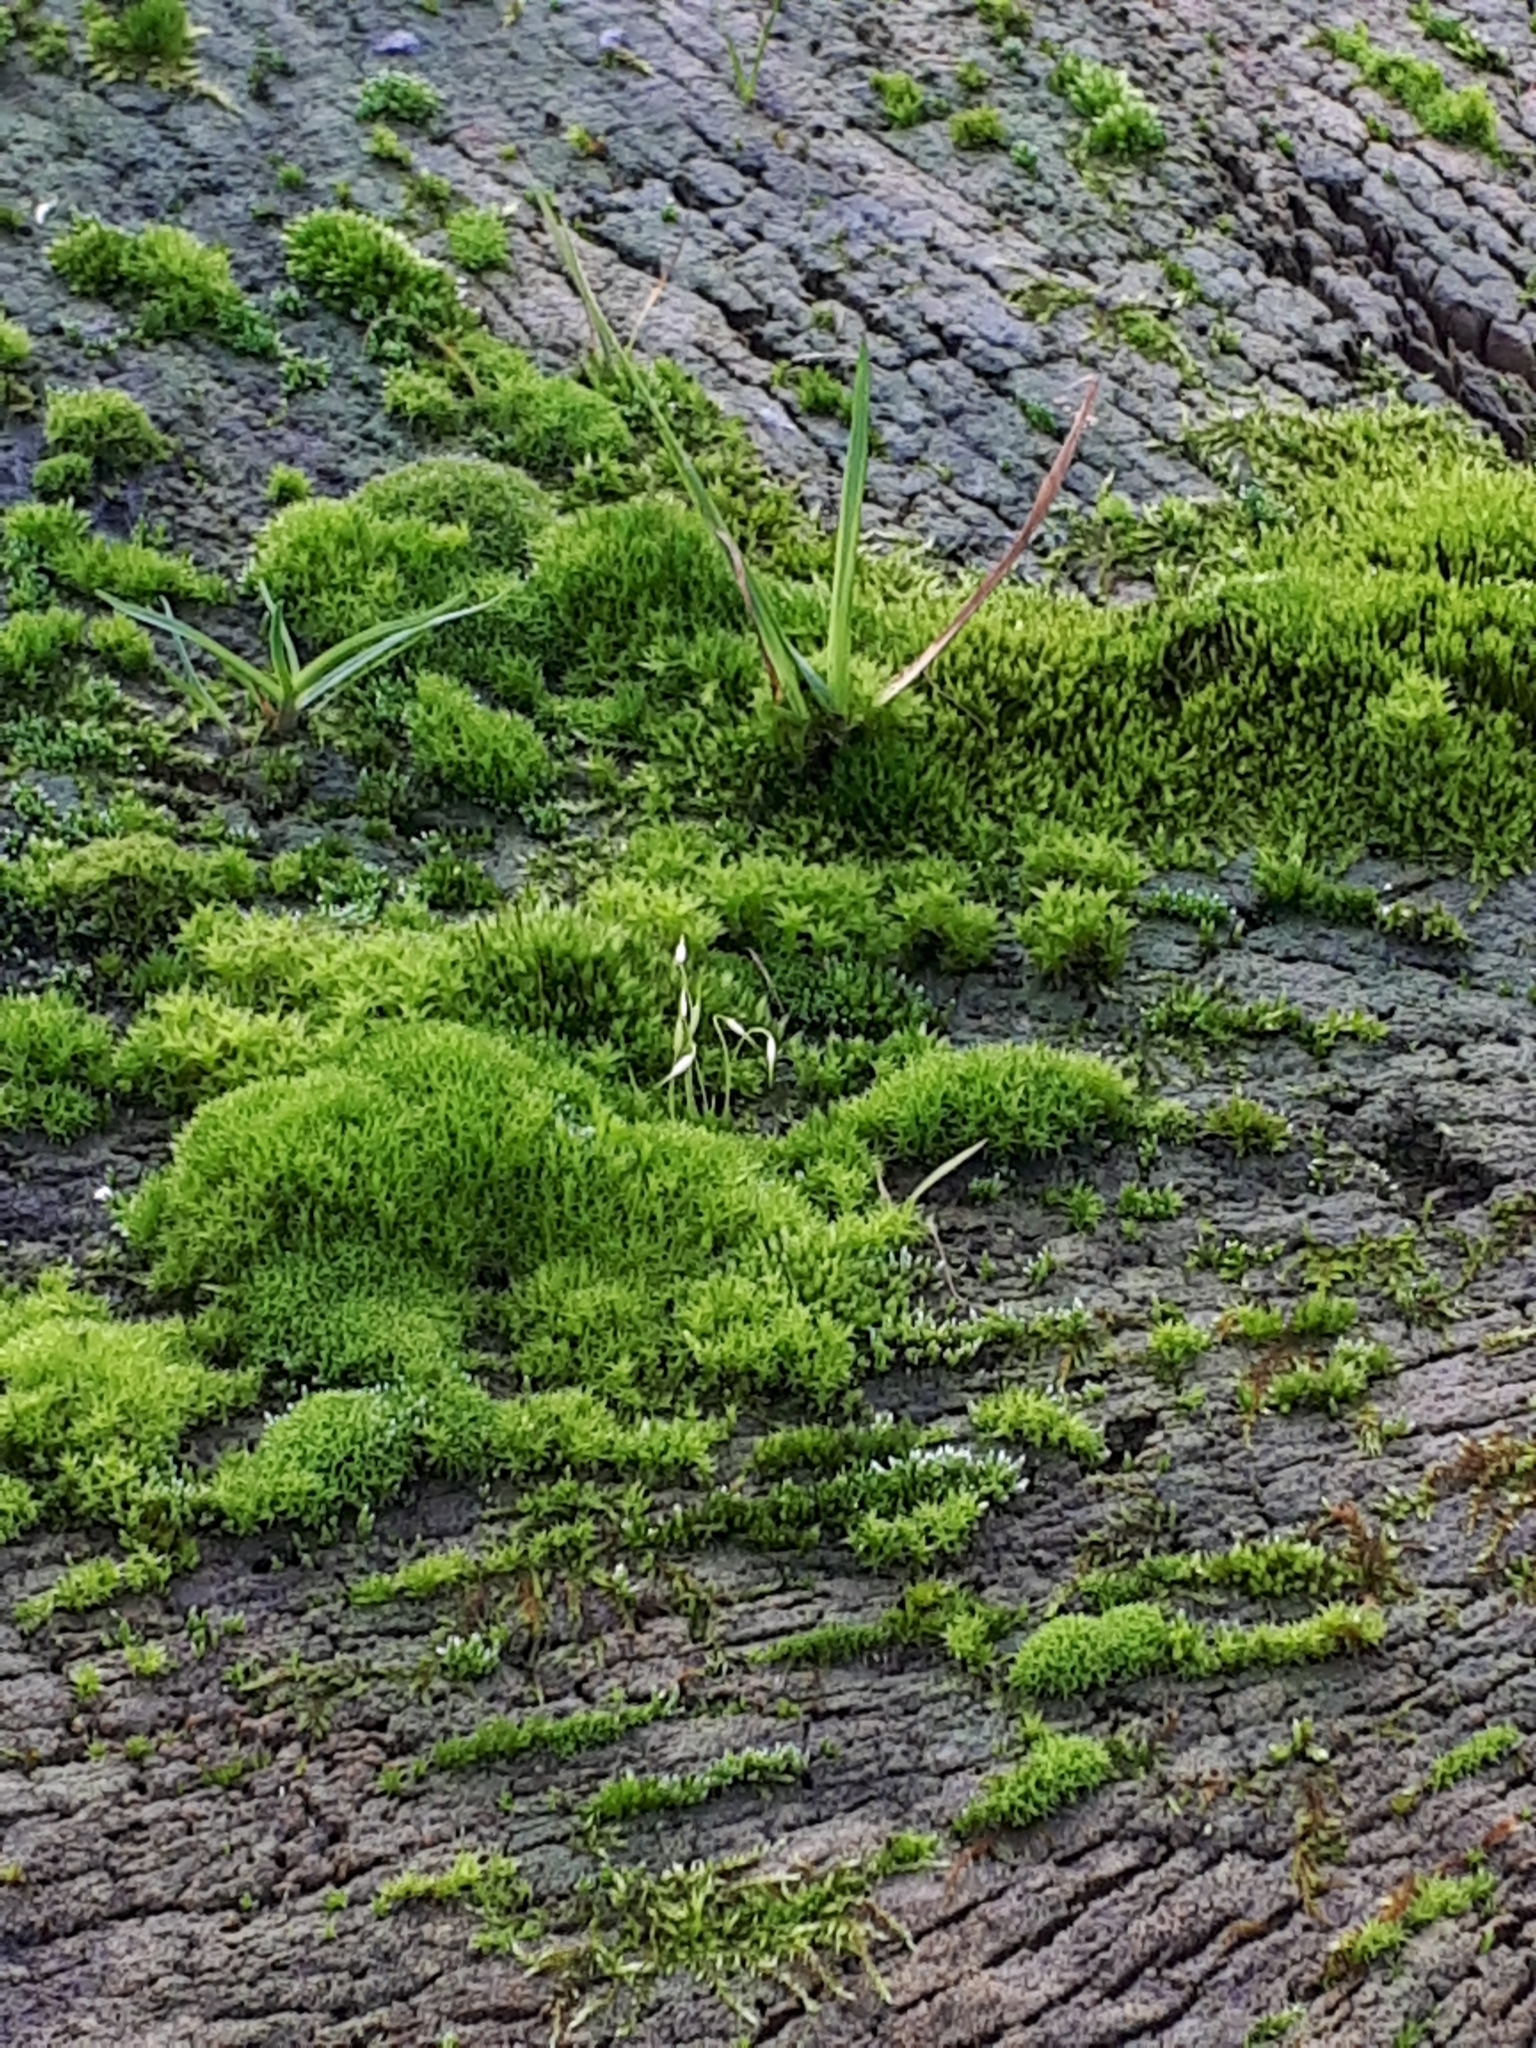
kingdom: Plantae
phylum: Bryophyta
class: Bryopsida
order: Funariales
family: Funariaceae
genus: Funaria
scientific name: Funaria hygrometrica
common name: Common cord moss
